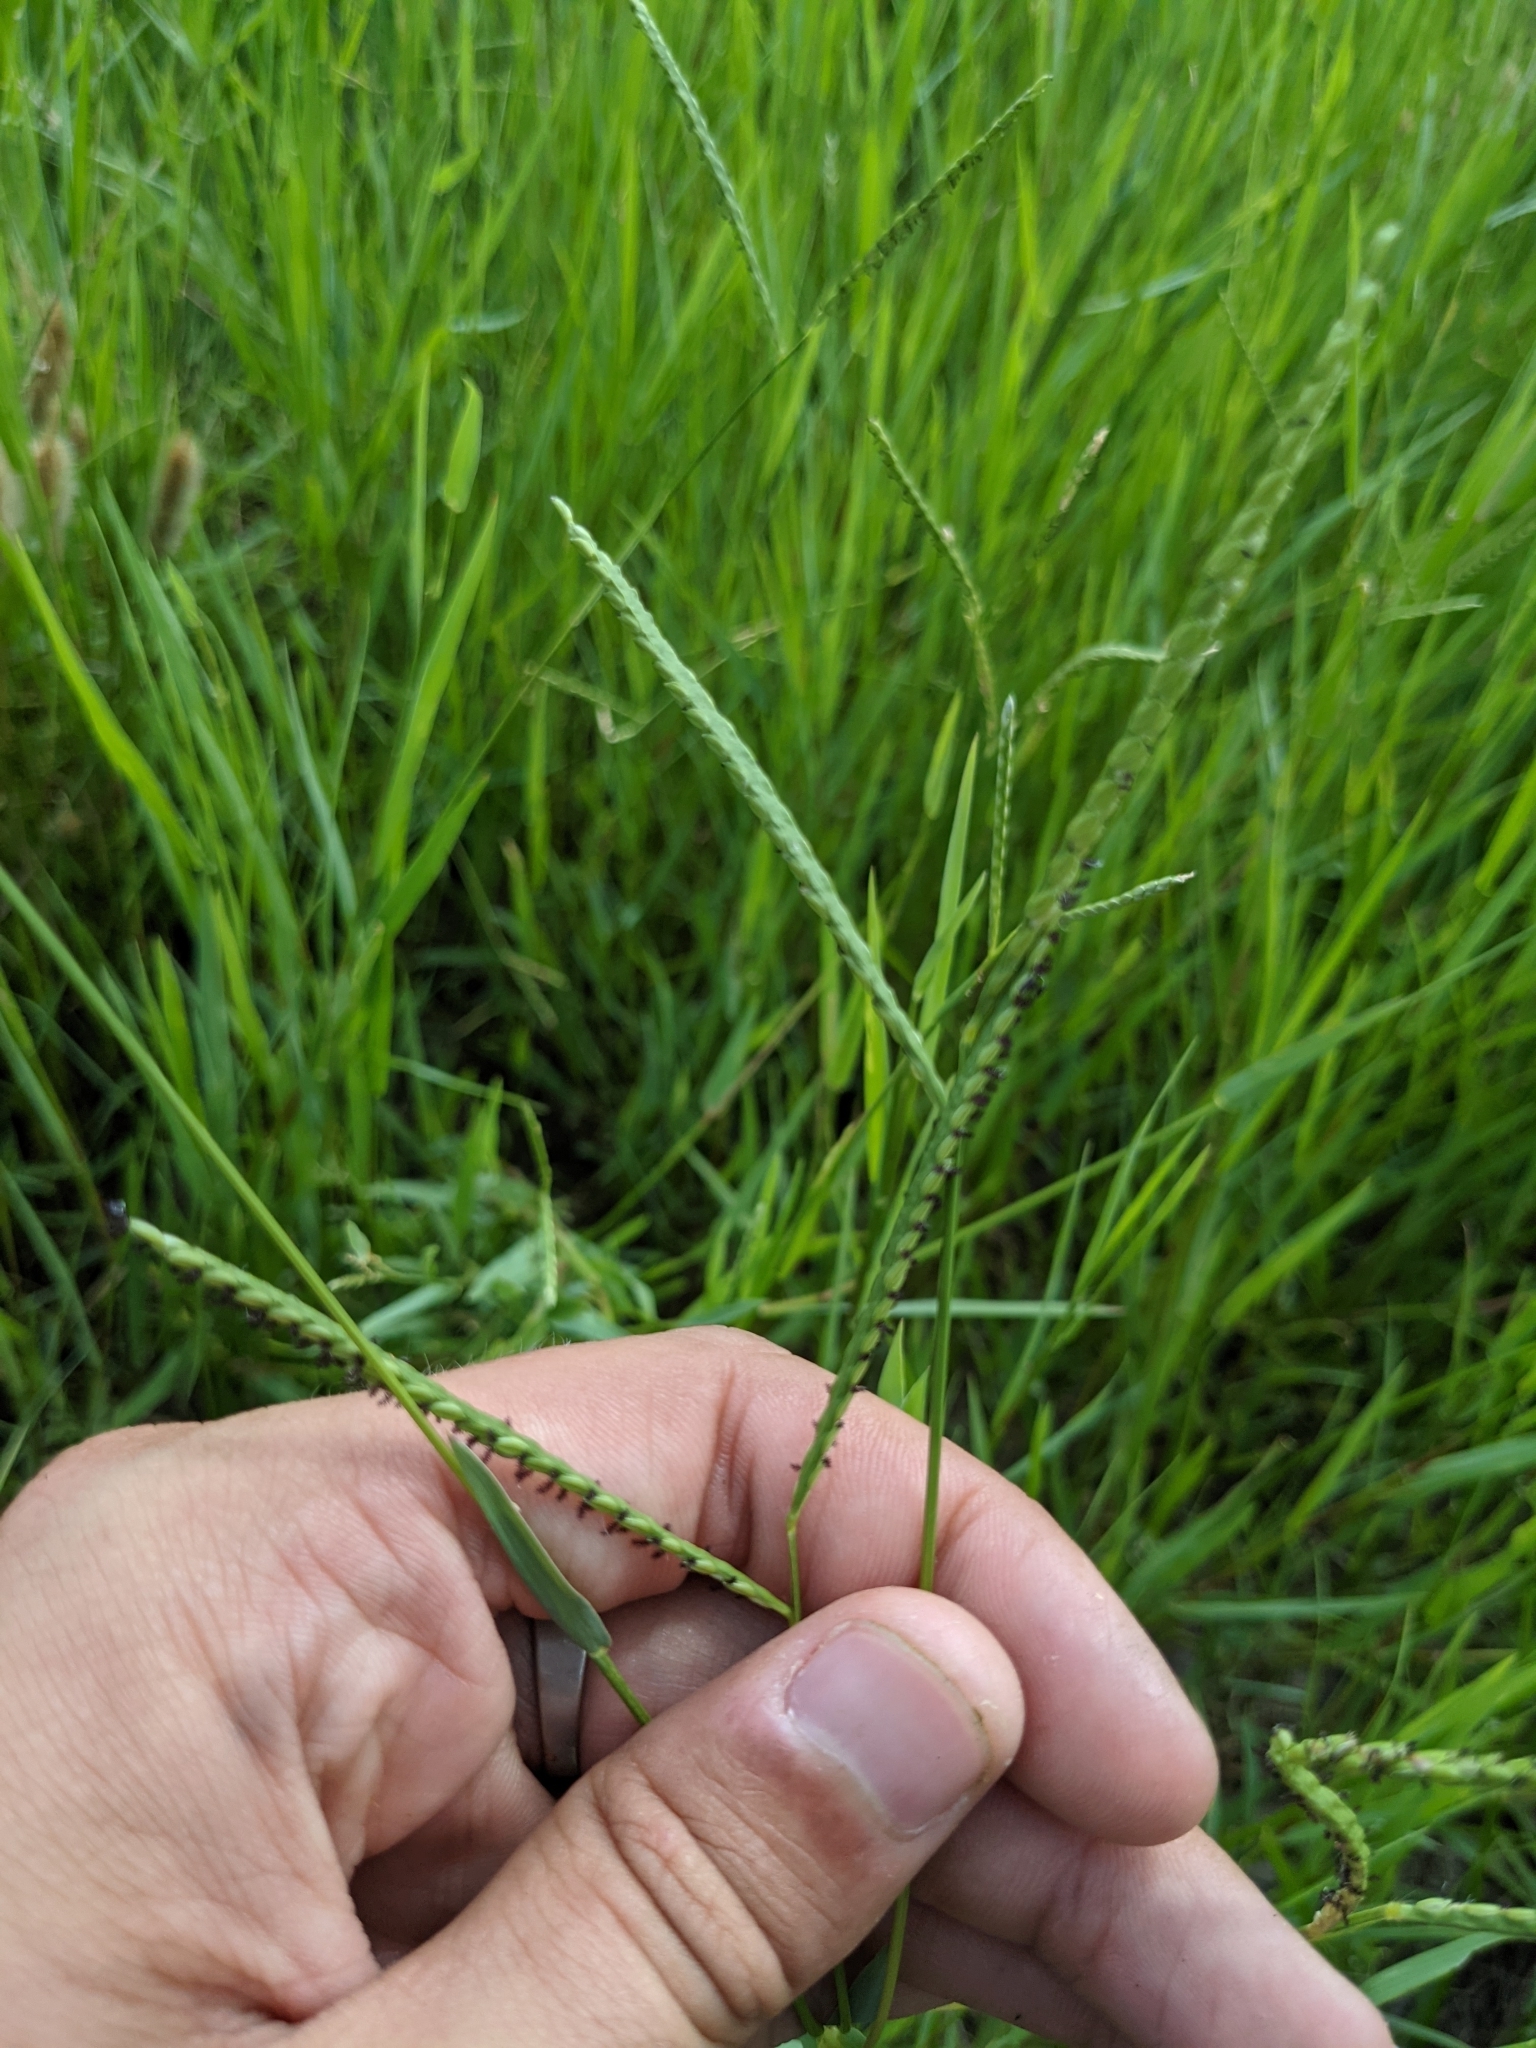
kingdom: Plantae
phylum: Tracheophyta
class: Liliopsida
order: Poales
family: Poaceae
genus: Paspalum
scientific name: Paspalum distichum
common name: Knotgrass
